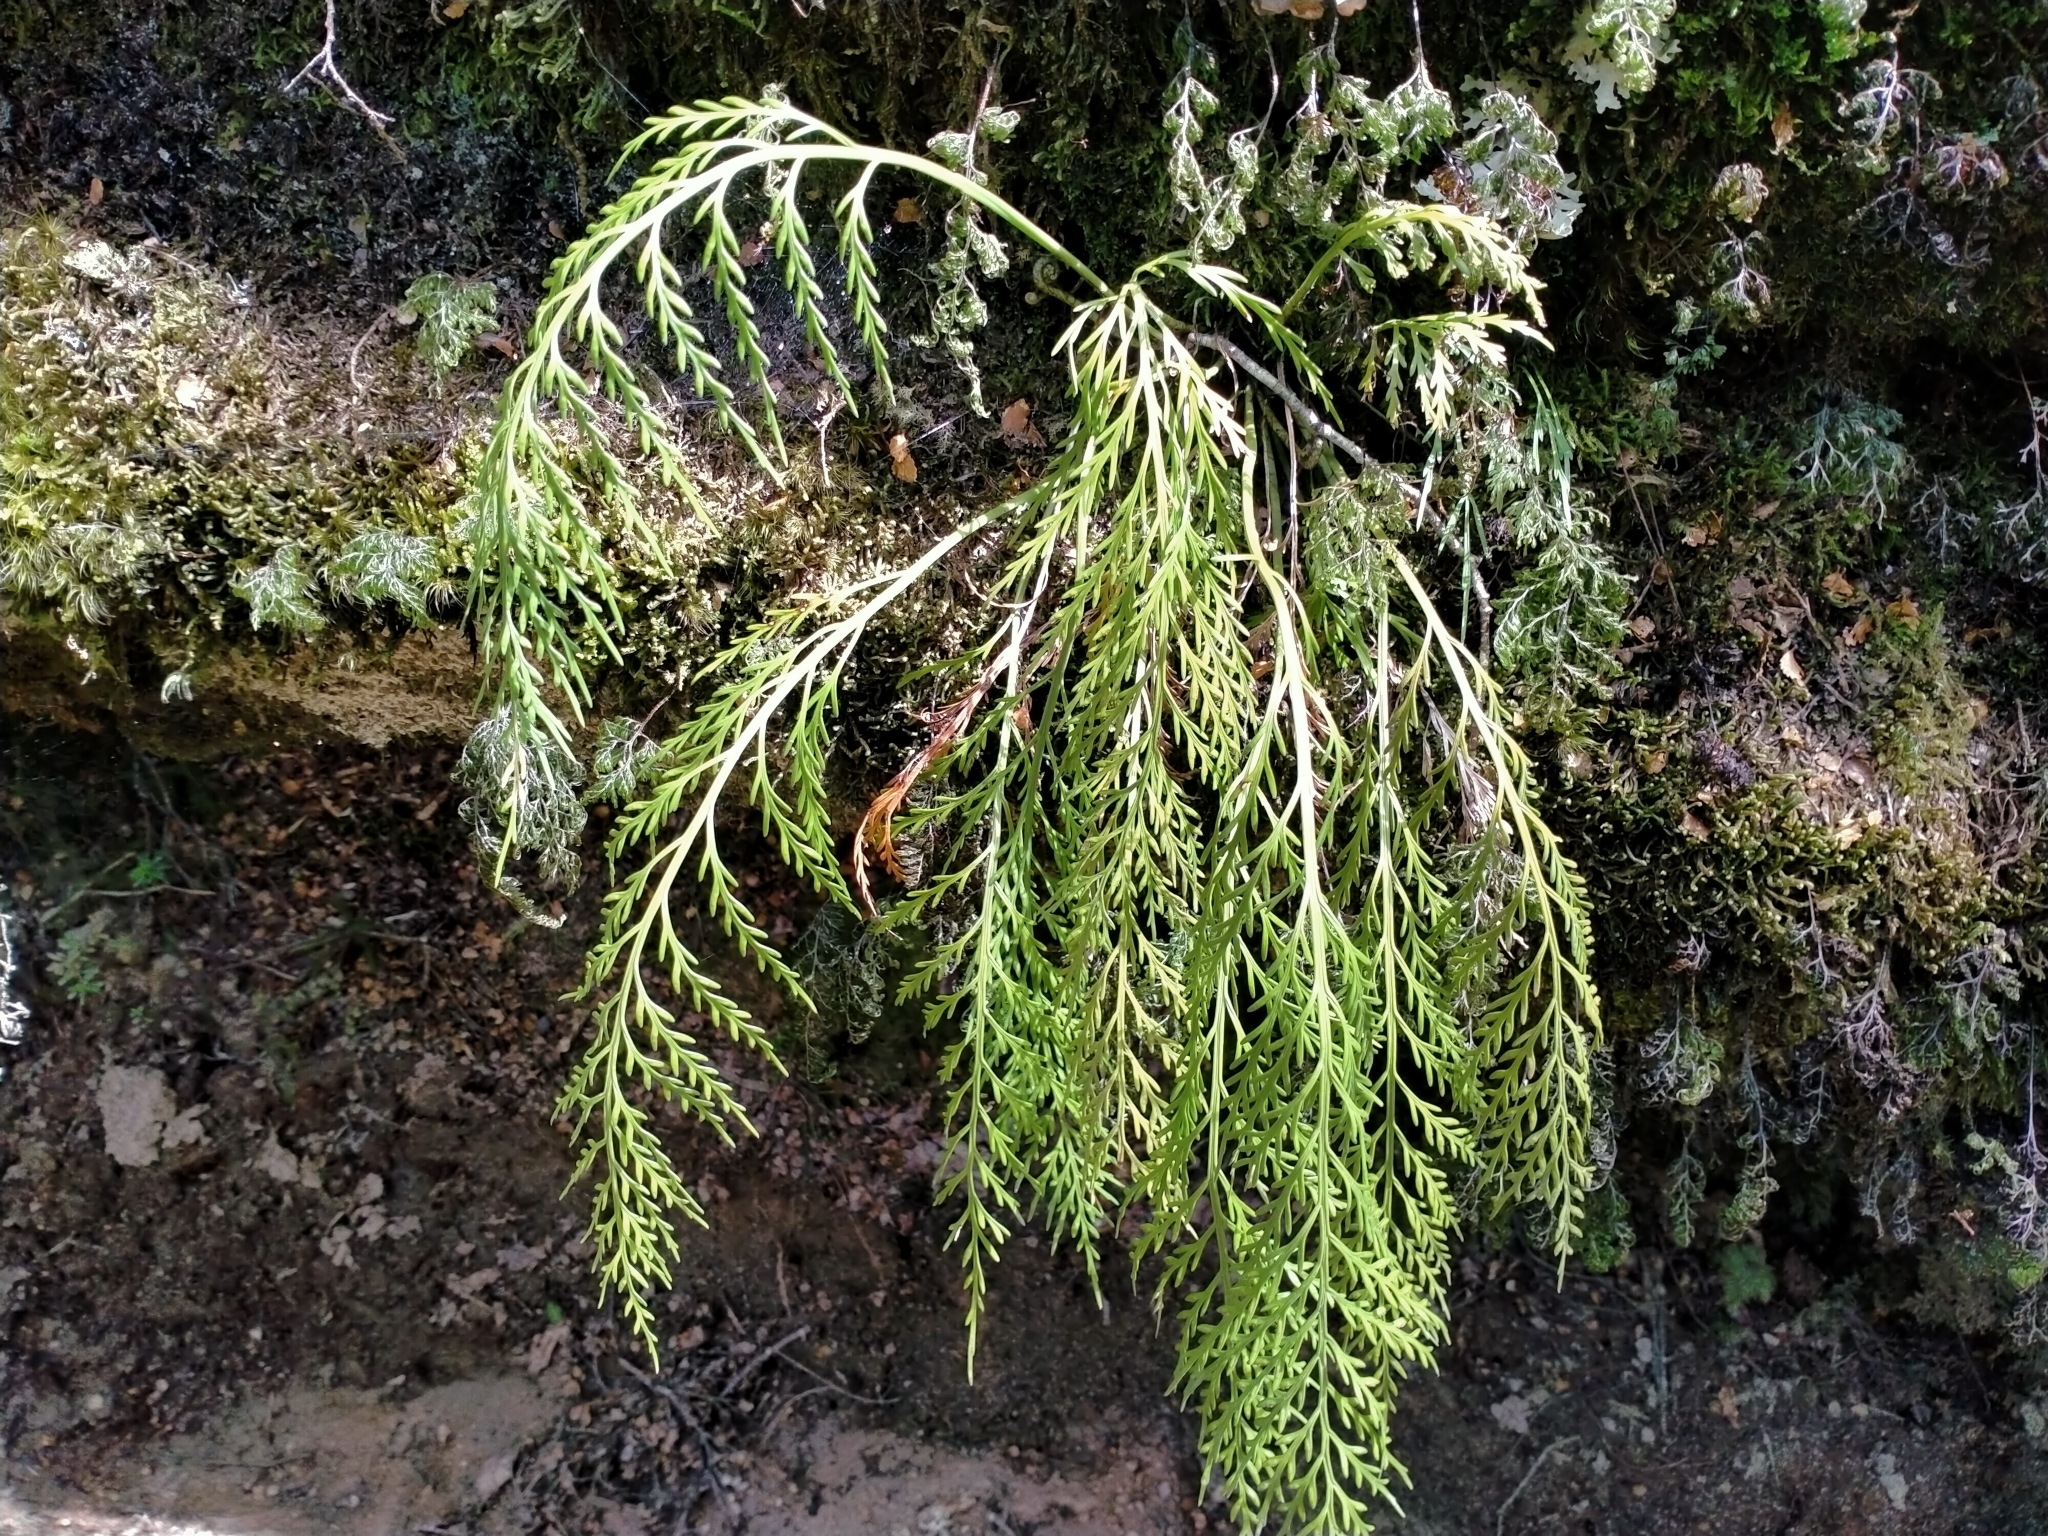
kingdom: Plantae
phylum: Tracheophyta
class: Polypodiopsida
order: Polypodiales
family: Aspleniaceae
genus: Asplenium
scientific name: Asplenium flaccidum
